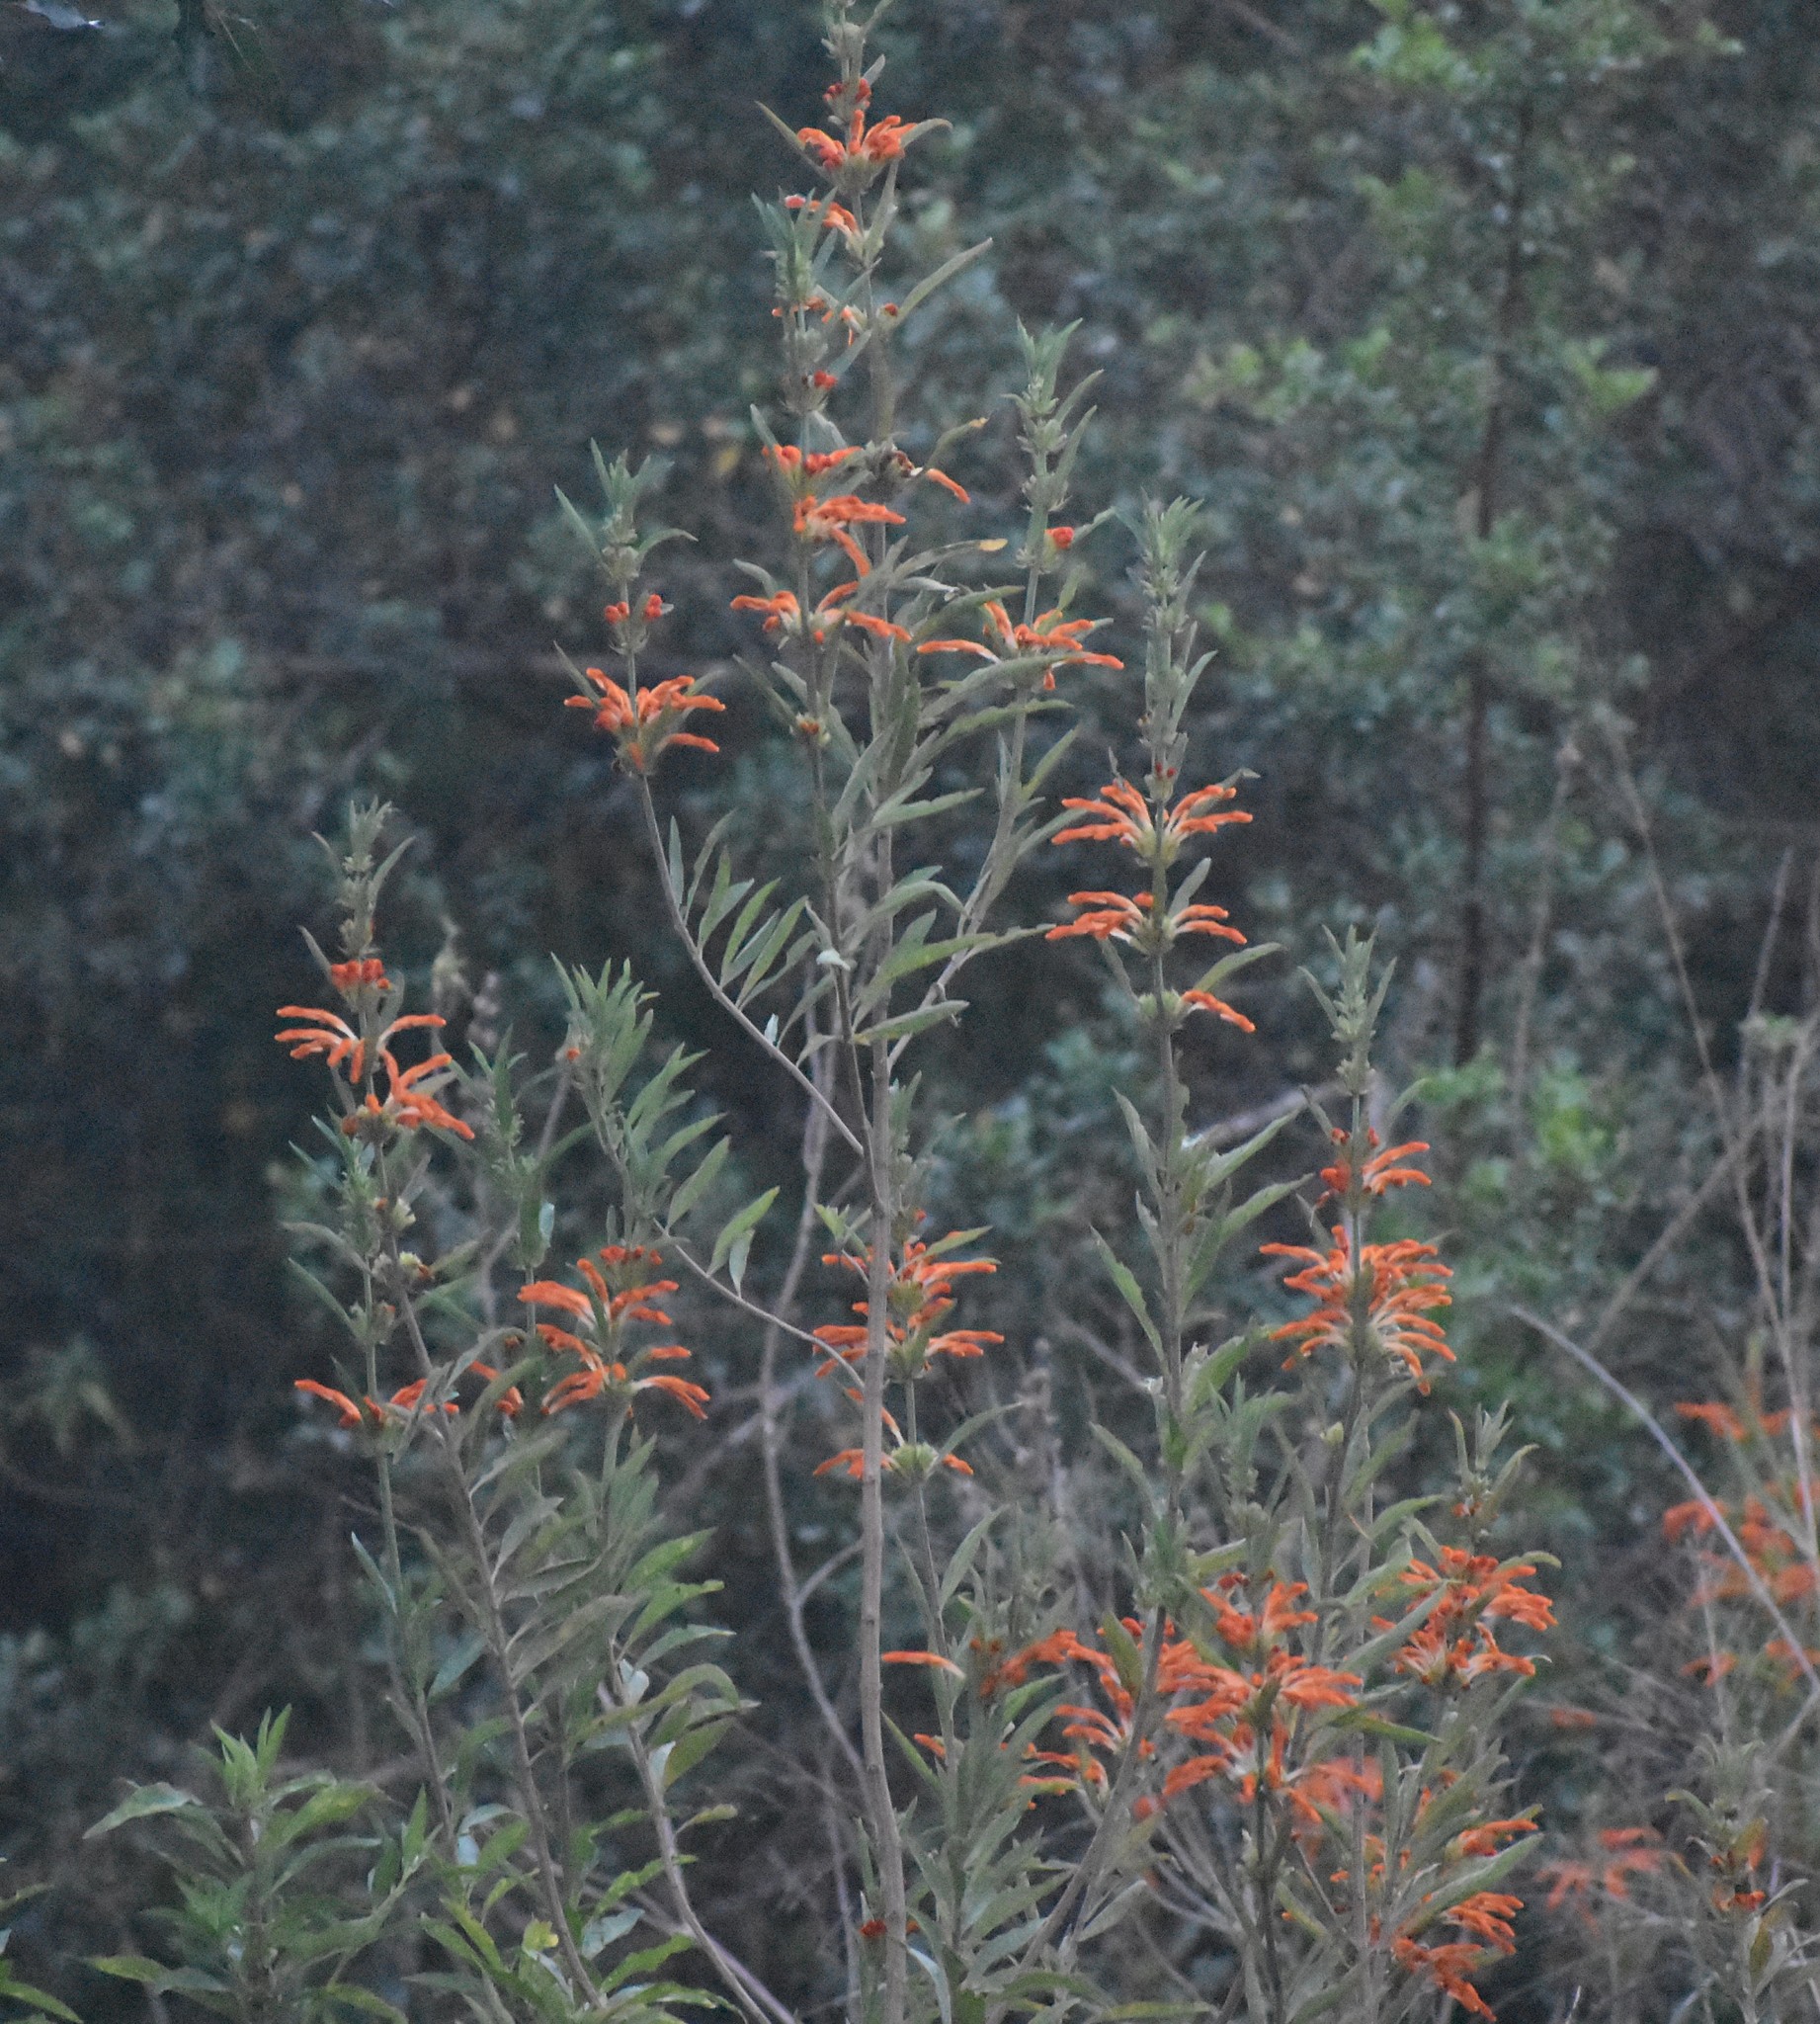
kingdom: Plantae
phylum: Tracheophyta
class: Magnoliopsida
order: Lamiales
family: Lamiaceae
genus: Leonotis
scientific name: Leonotis leonurus
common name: Lion's ear
